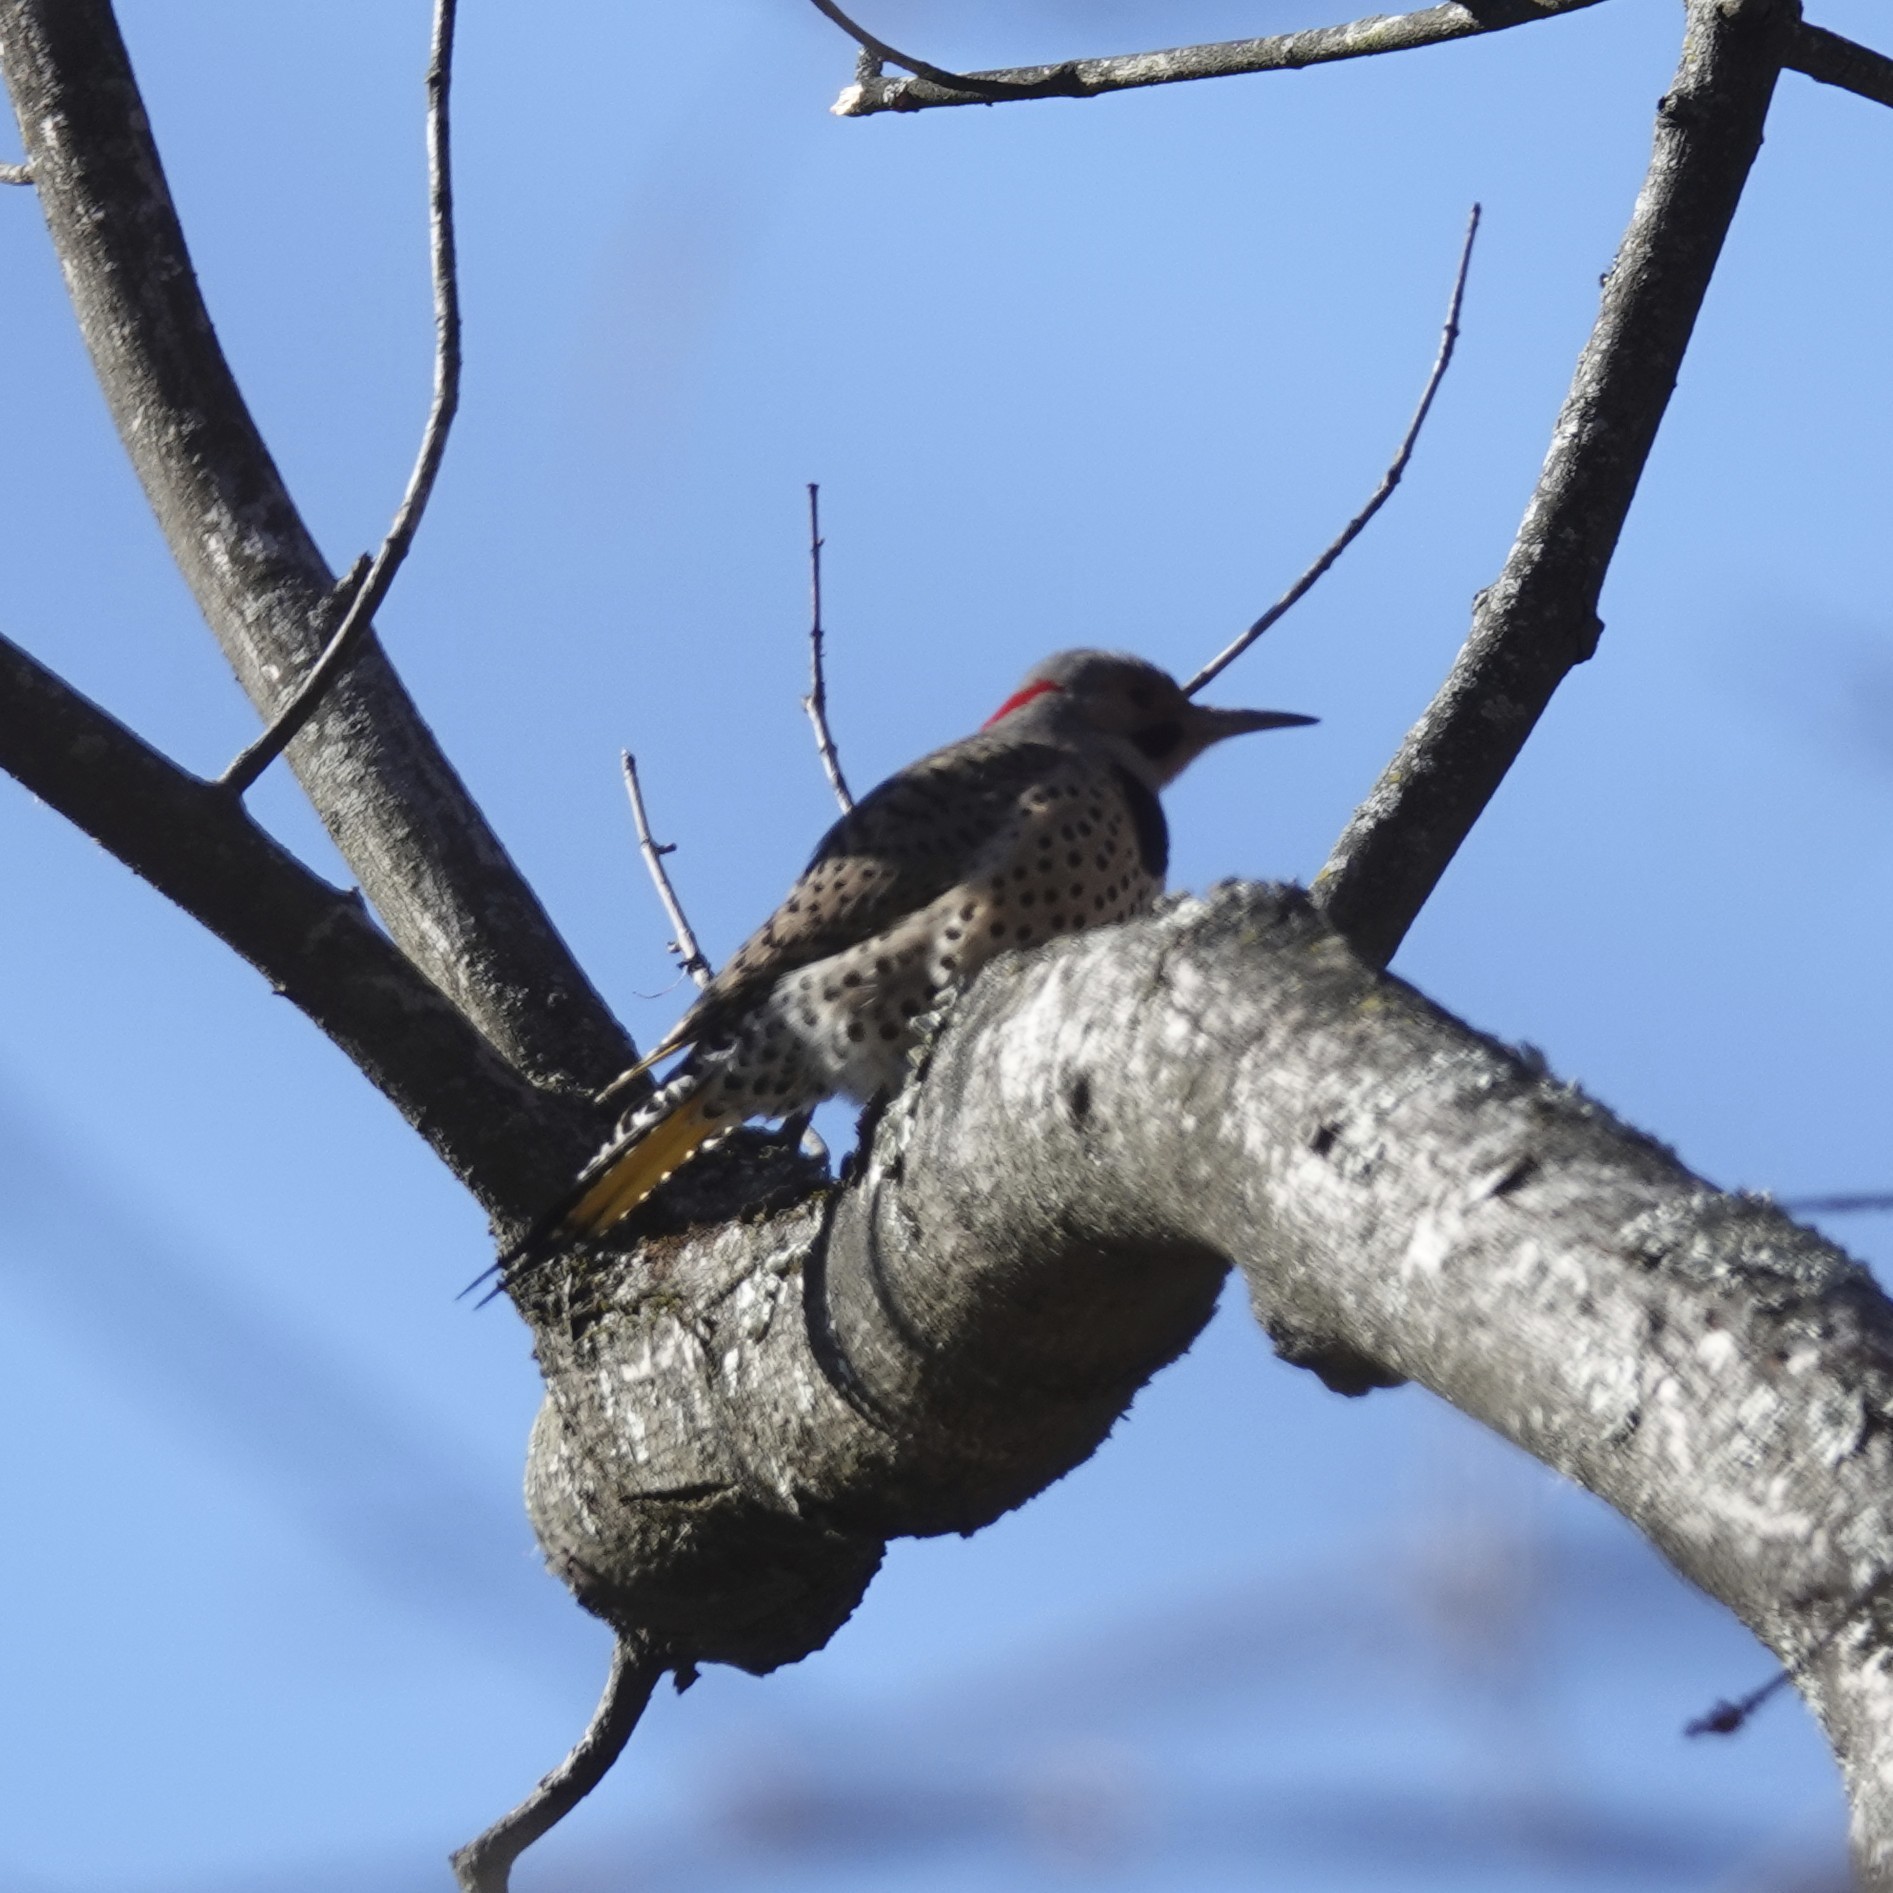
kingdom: Animalia
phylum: Chordata
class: Aves
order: Piciformes
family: Picidae
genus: Colaptes
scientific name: Colaptes auratus
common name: Northern flicker
